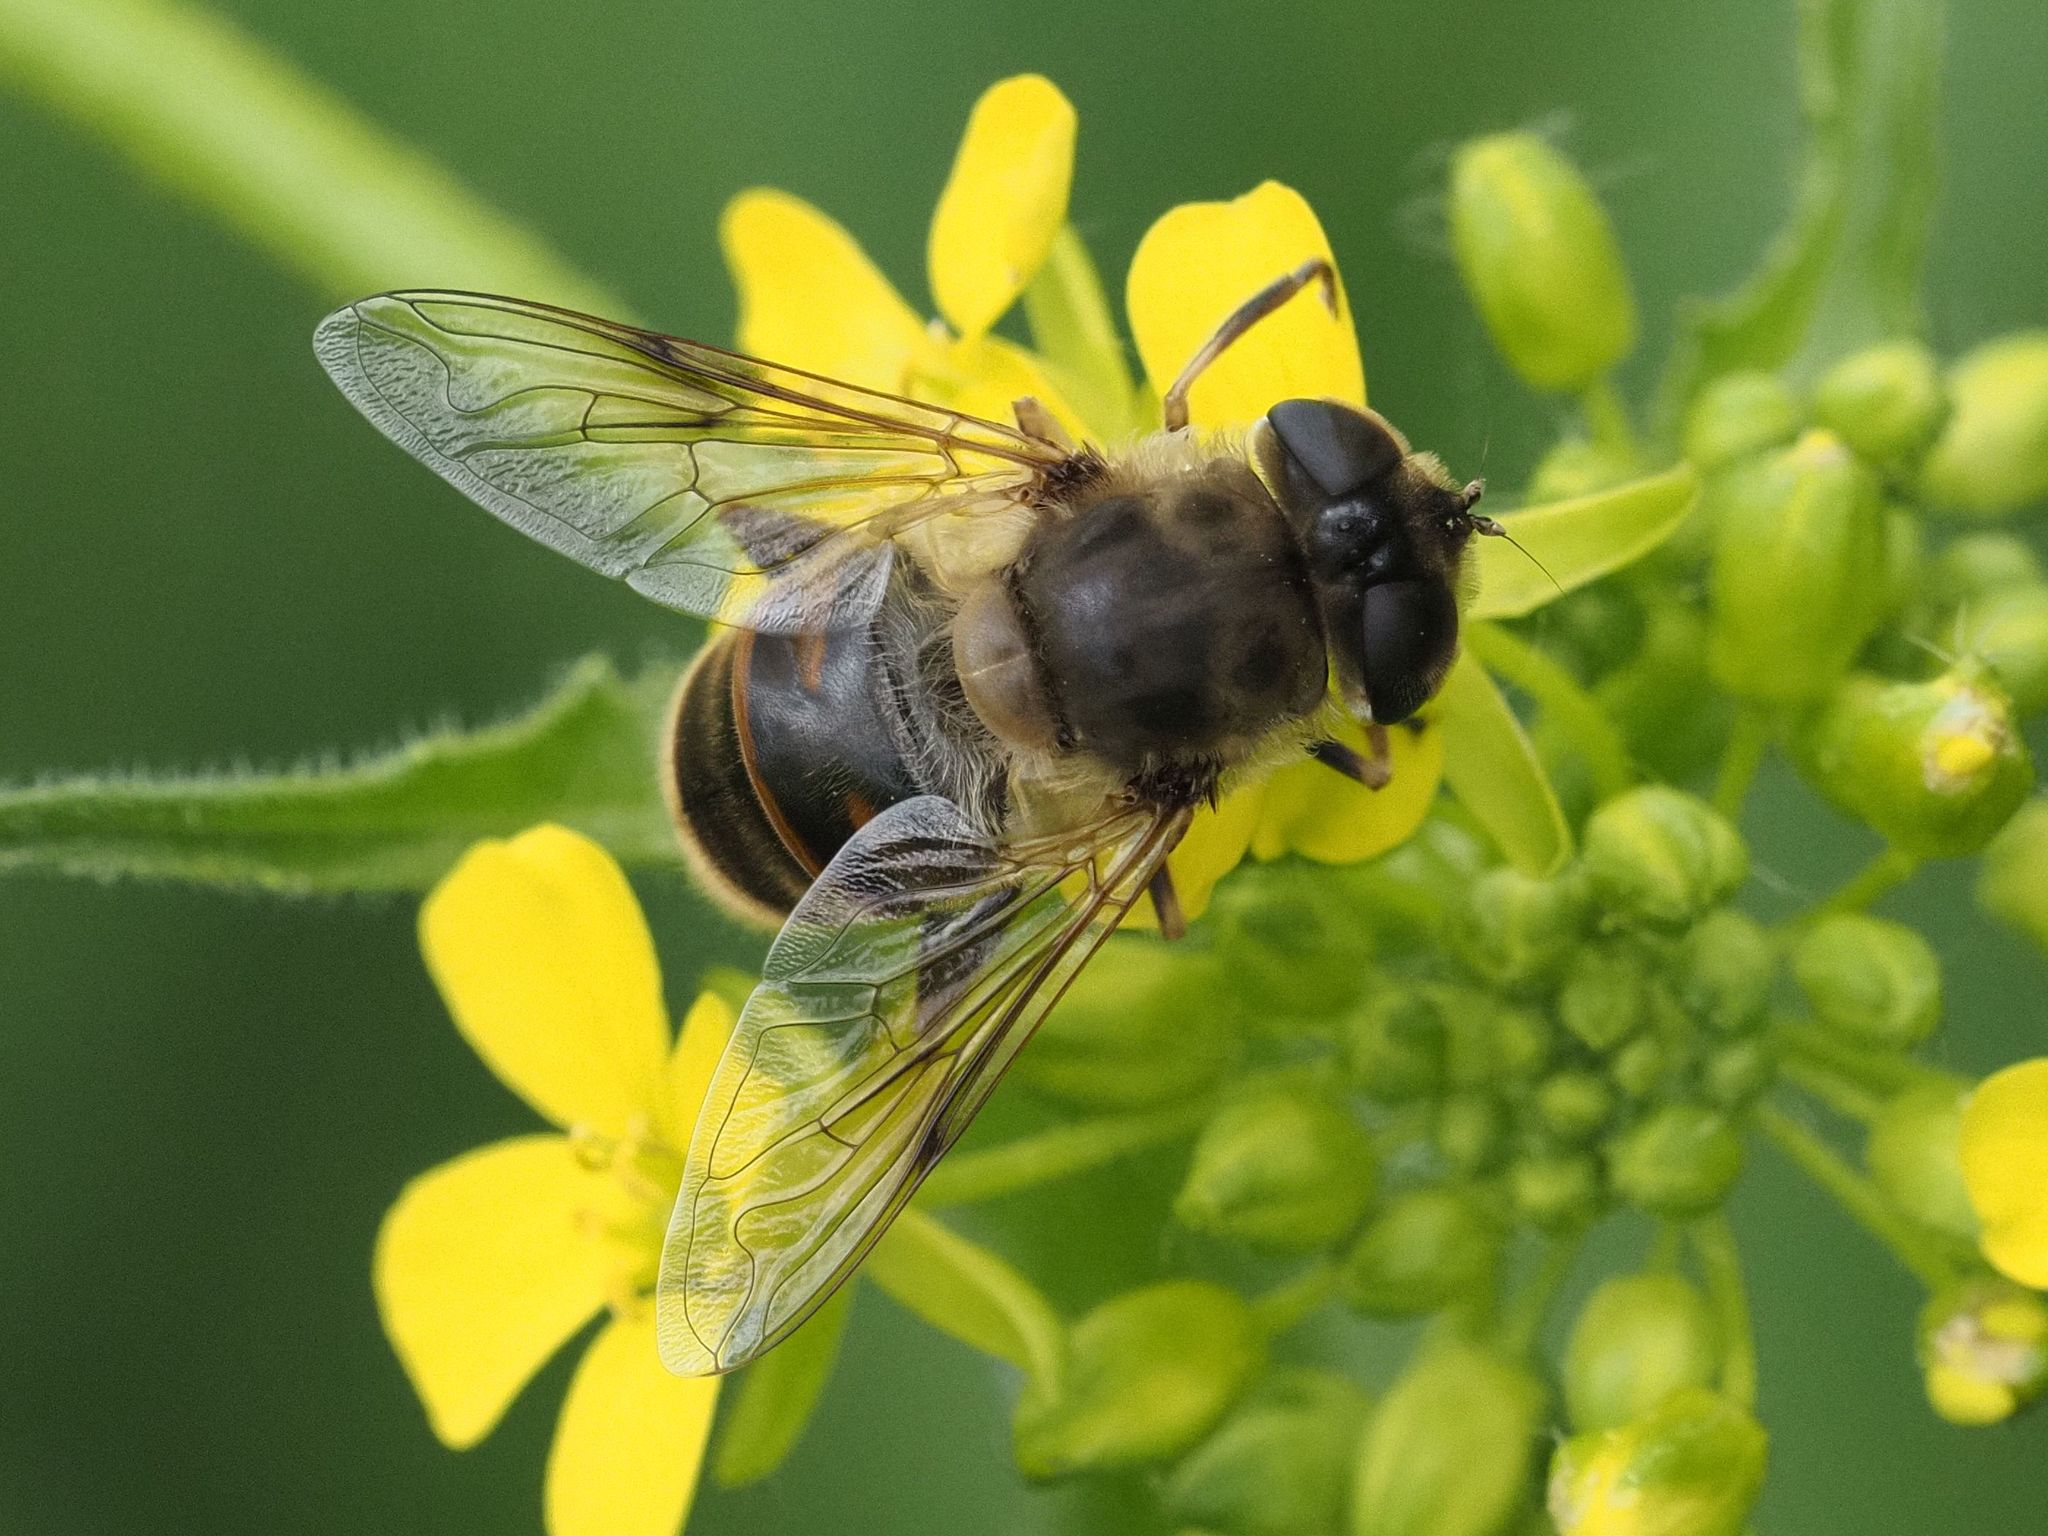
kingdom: Animalia
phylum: Arthropoda
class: Insecta
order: Diptera
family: Syrphidae
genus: Eristalis
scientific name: Eristalis tenax
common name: Drone fly
